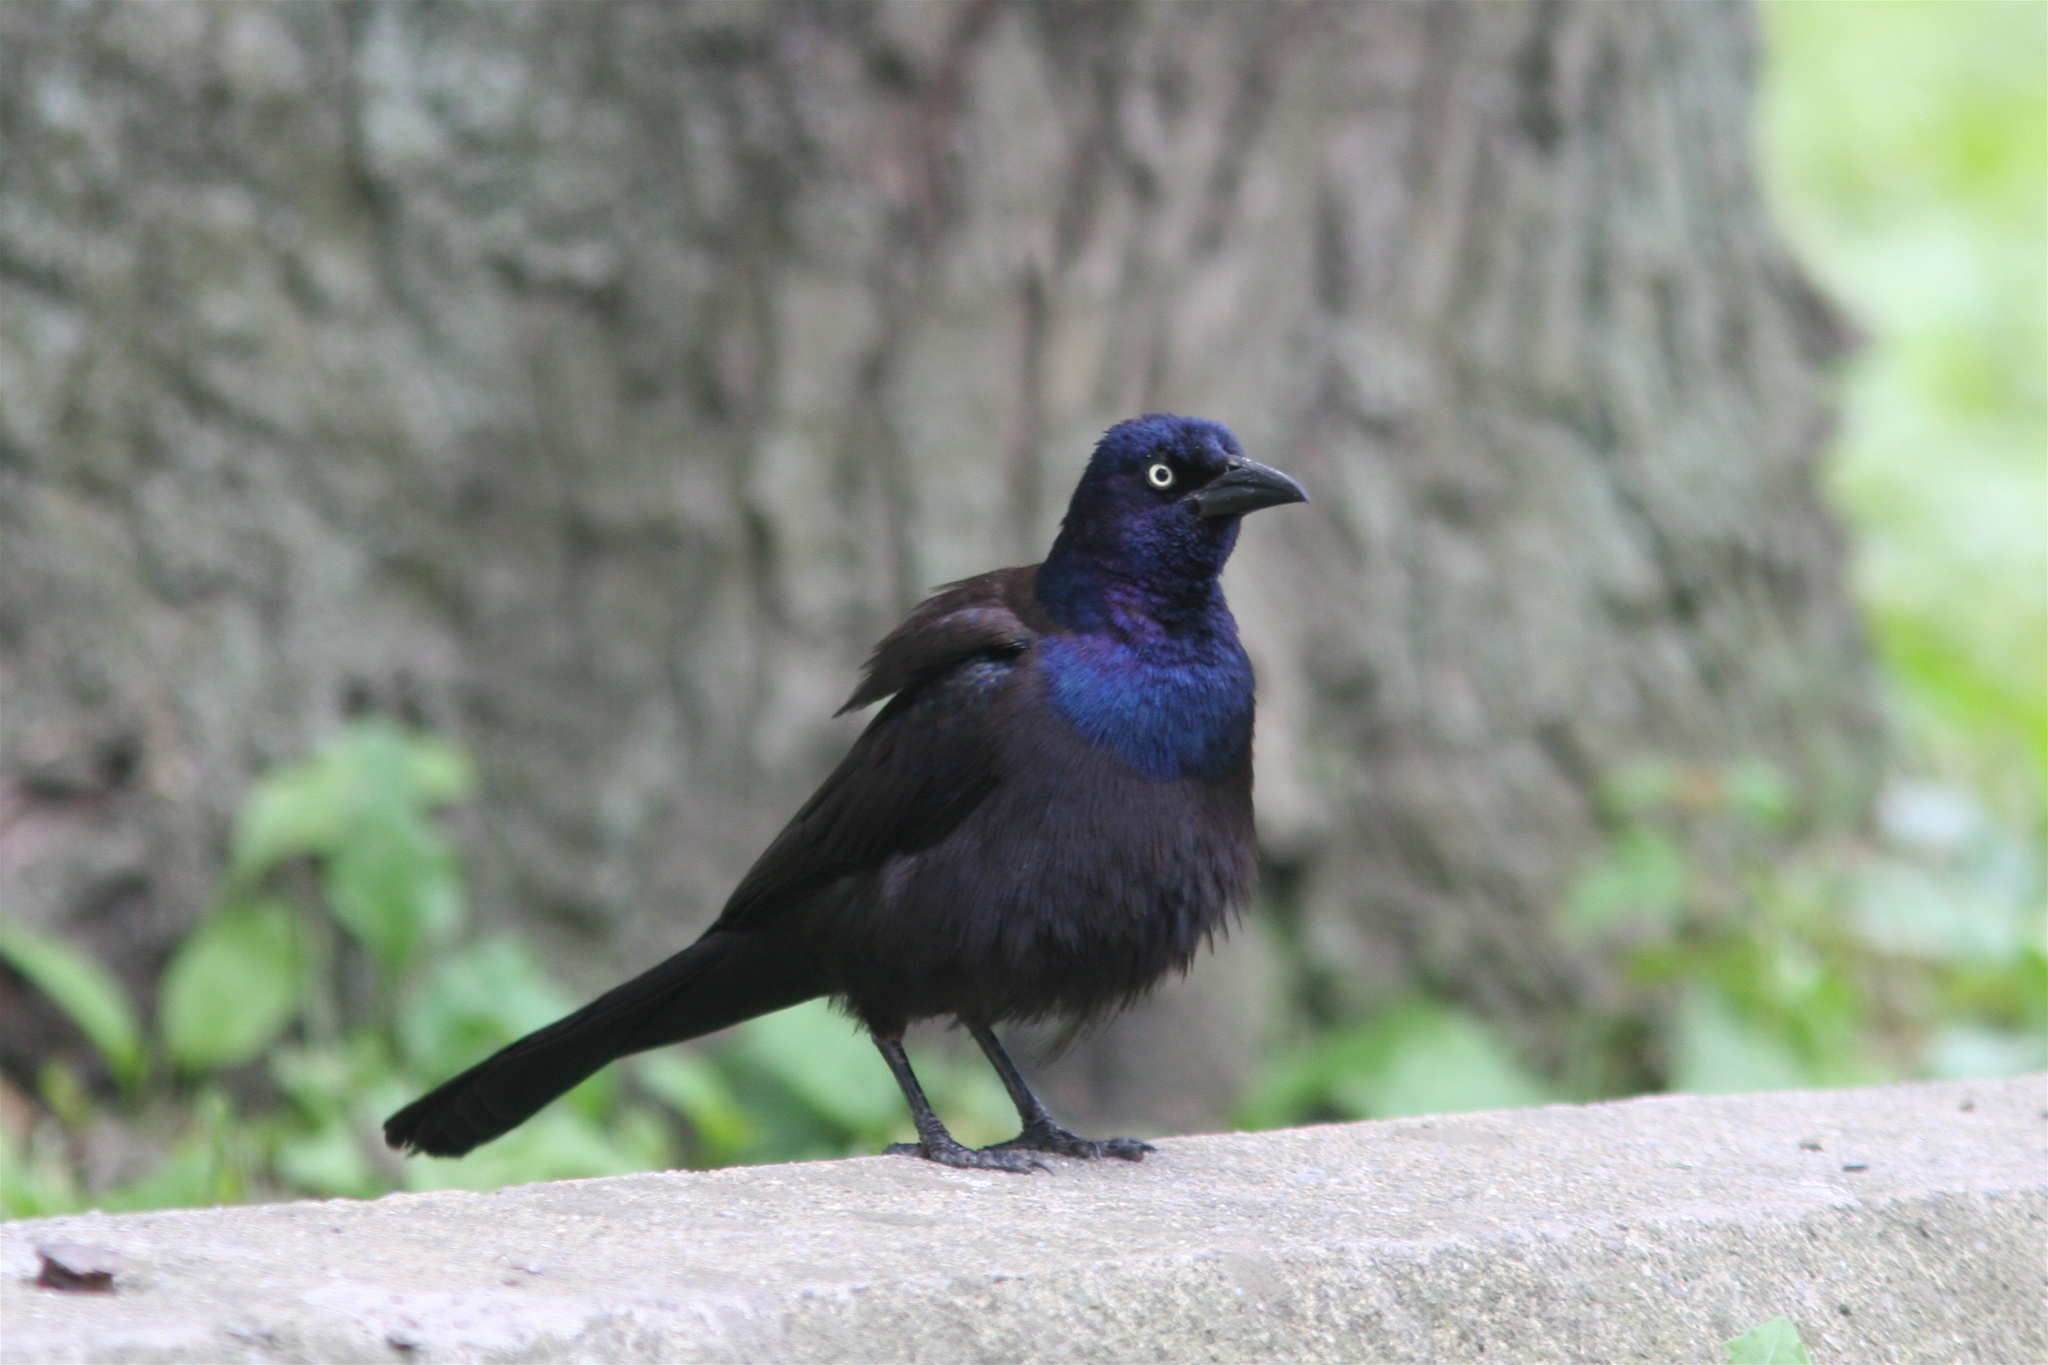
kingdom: Animalia
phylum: Chordata
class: Aves
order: Passeriformes
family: Icteridae
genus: Quiscalus
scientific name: Quiscalus quiscula
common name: Common grackle
